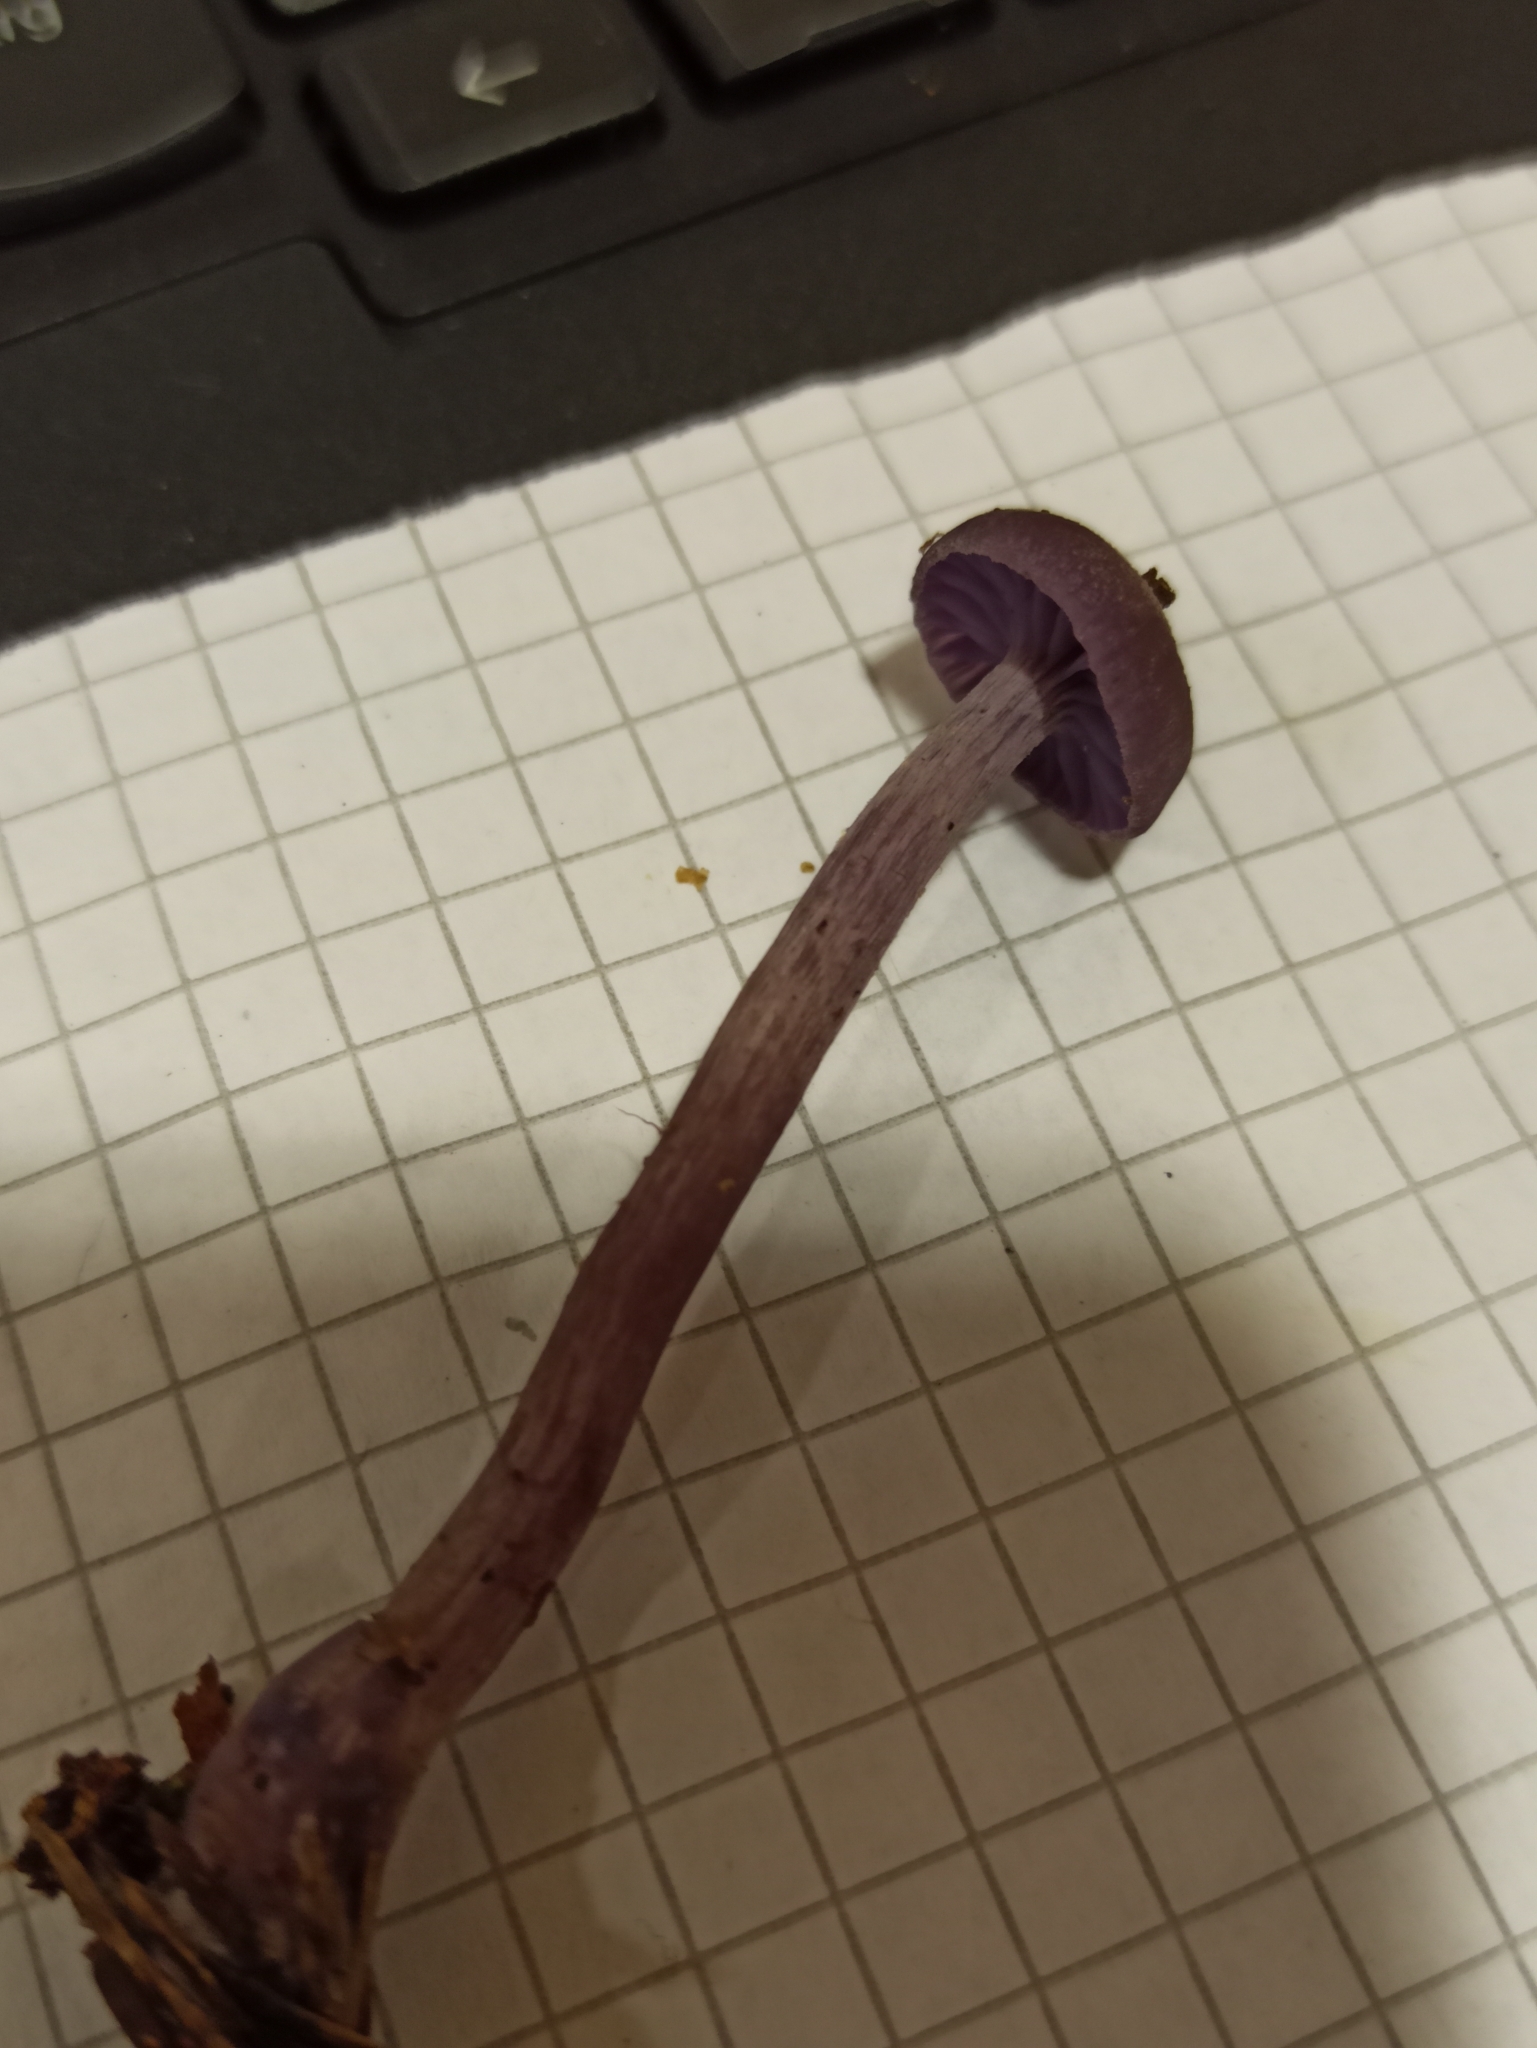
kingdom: Fungi
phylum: Basidiomycota
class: Agaricomycetes
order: Agaricales
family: Hydnangiaceae
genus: Laccaria
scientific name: Laccaria amethystina
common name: Amethyst deceiver
